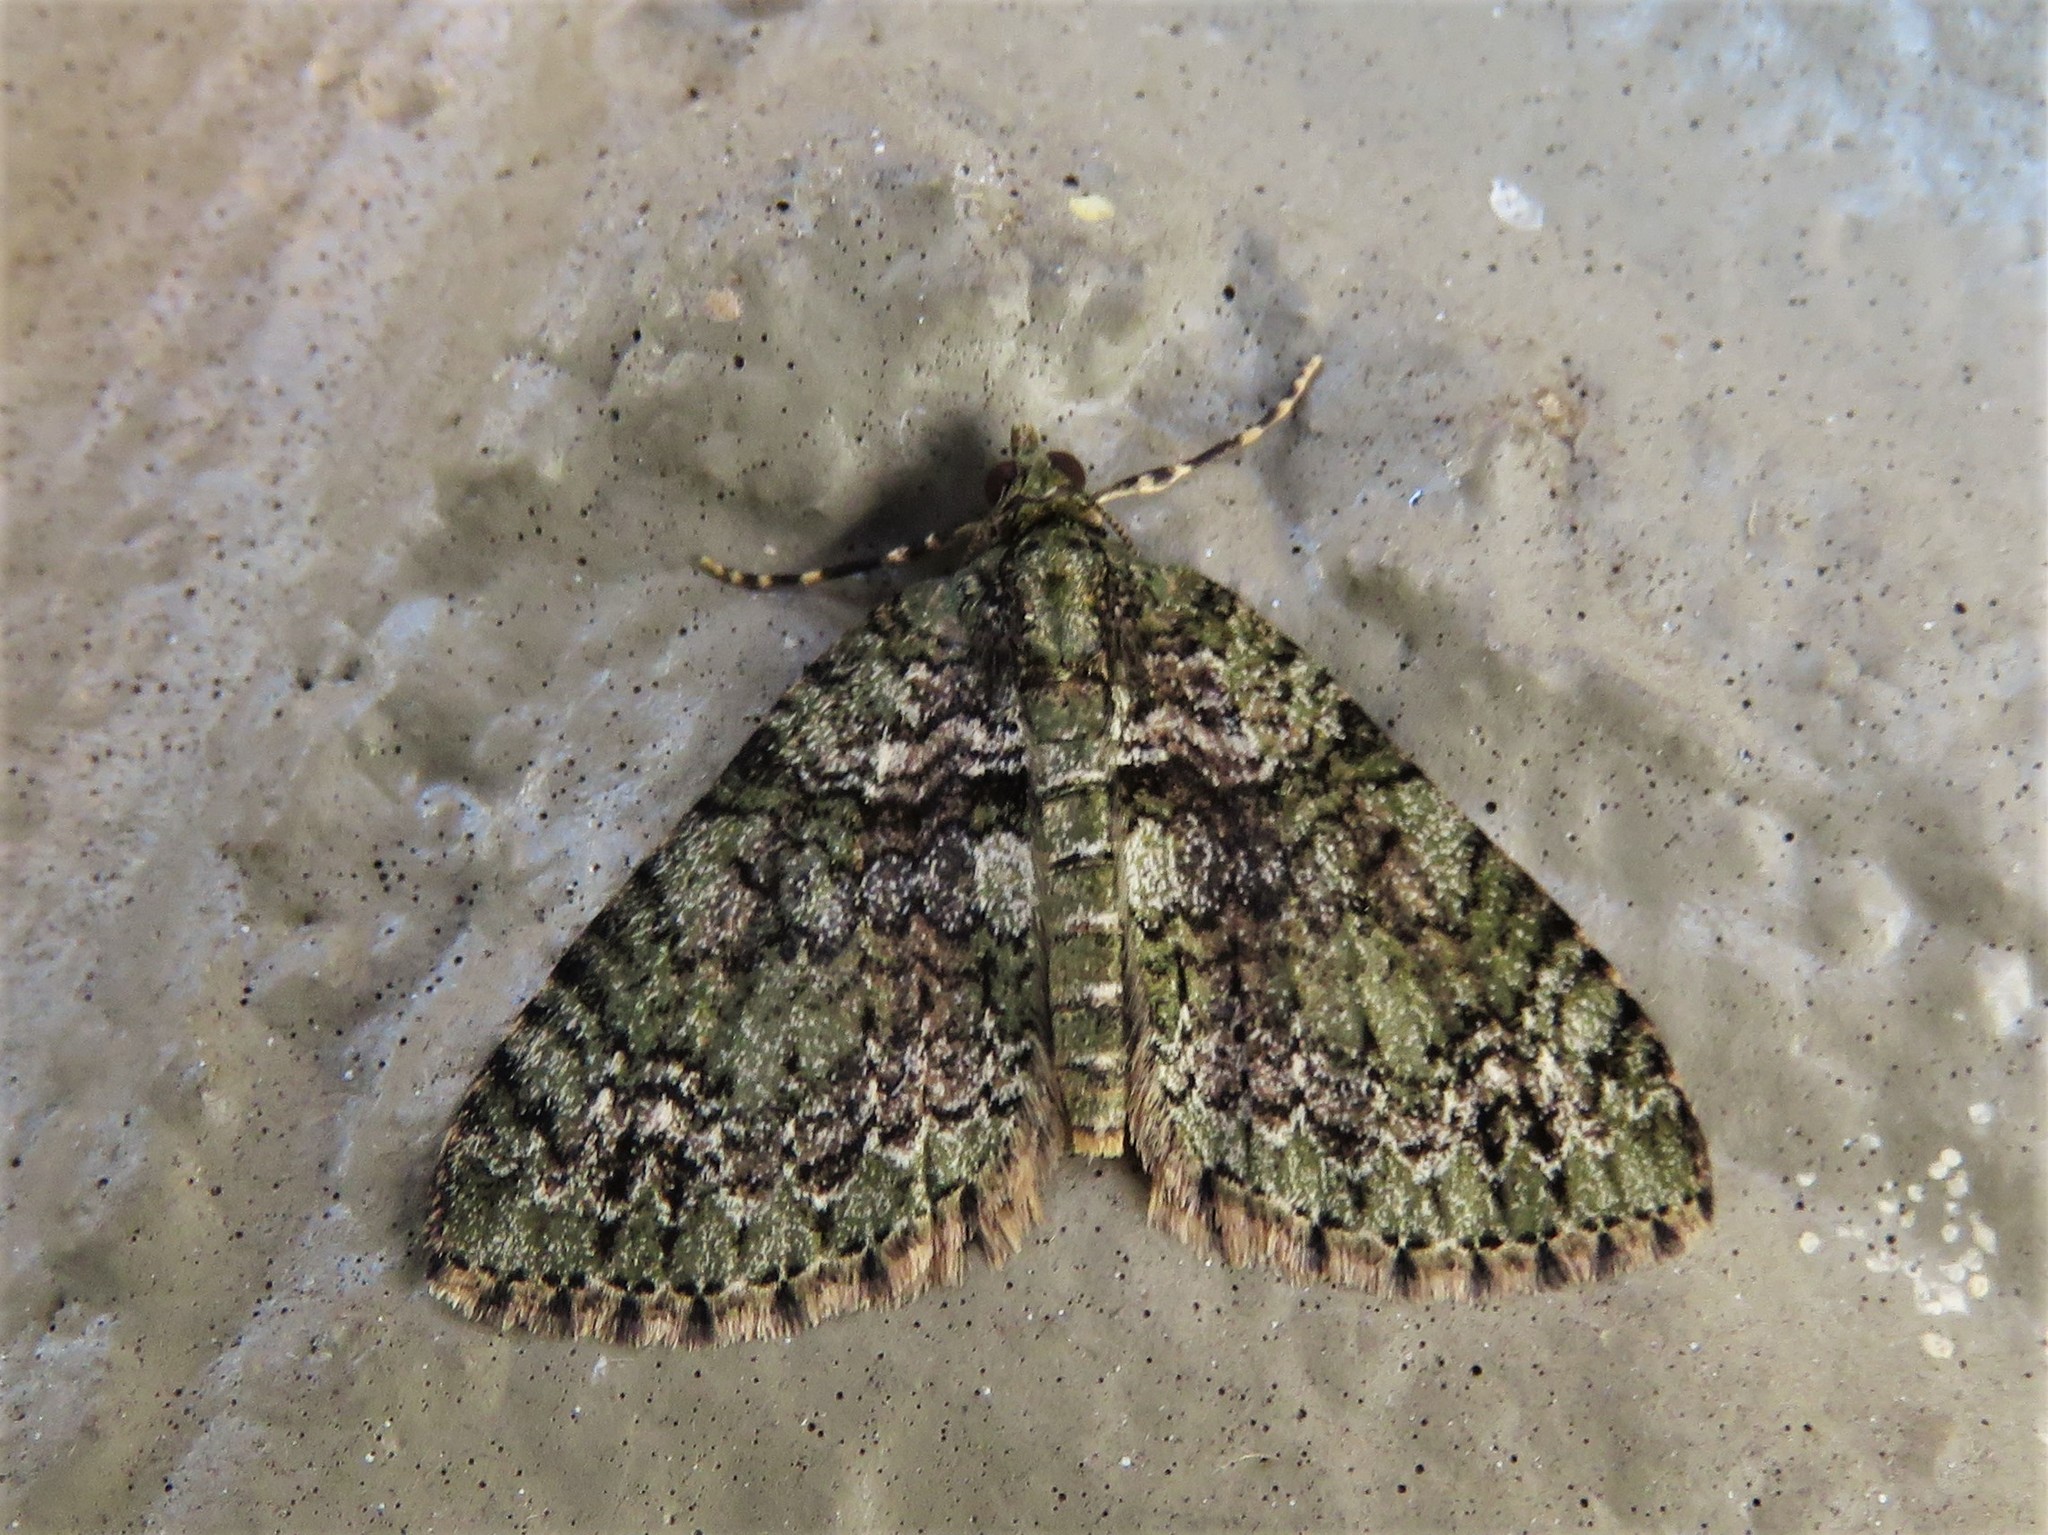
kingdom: Animalia
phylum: Arthropoda
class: Insecta
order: Lepidoptera
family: Geometridae
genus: Hammaptera
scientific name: Hammaptera parinotata
